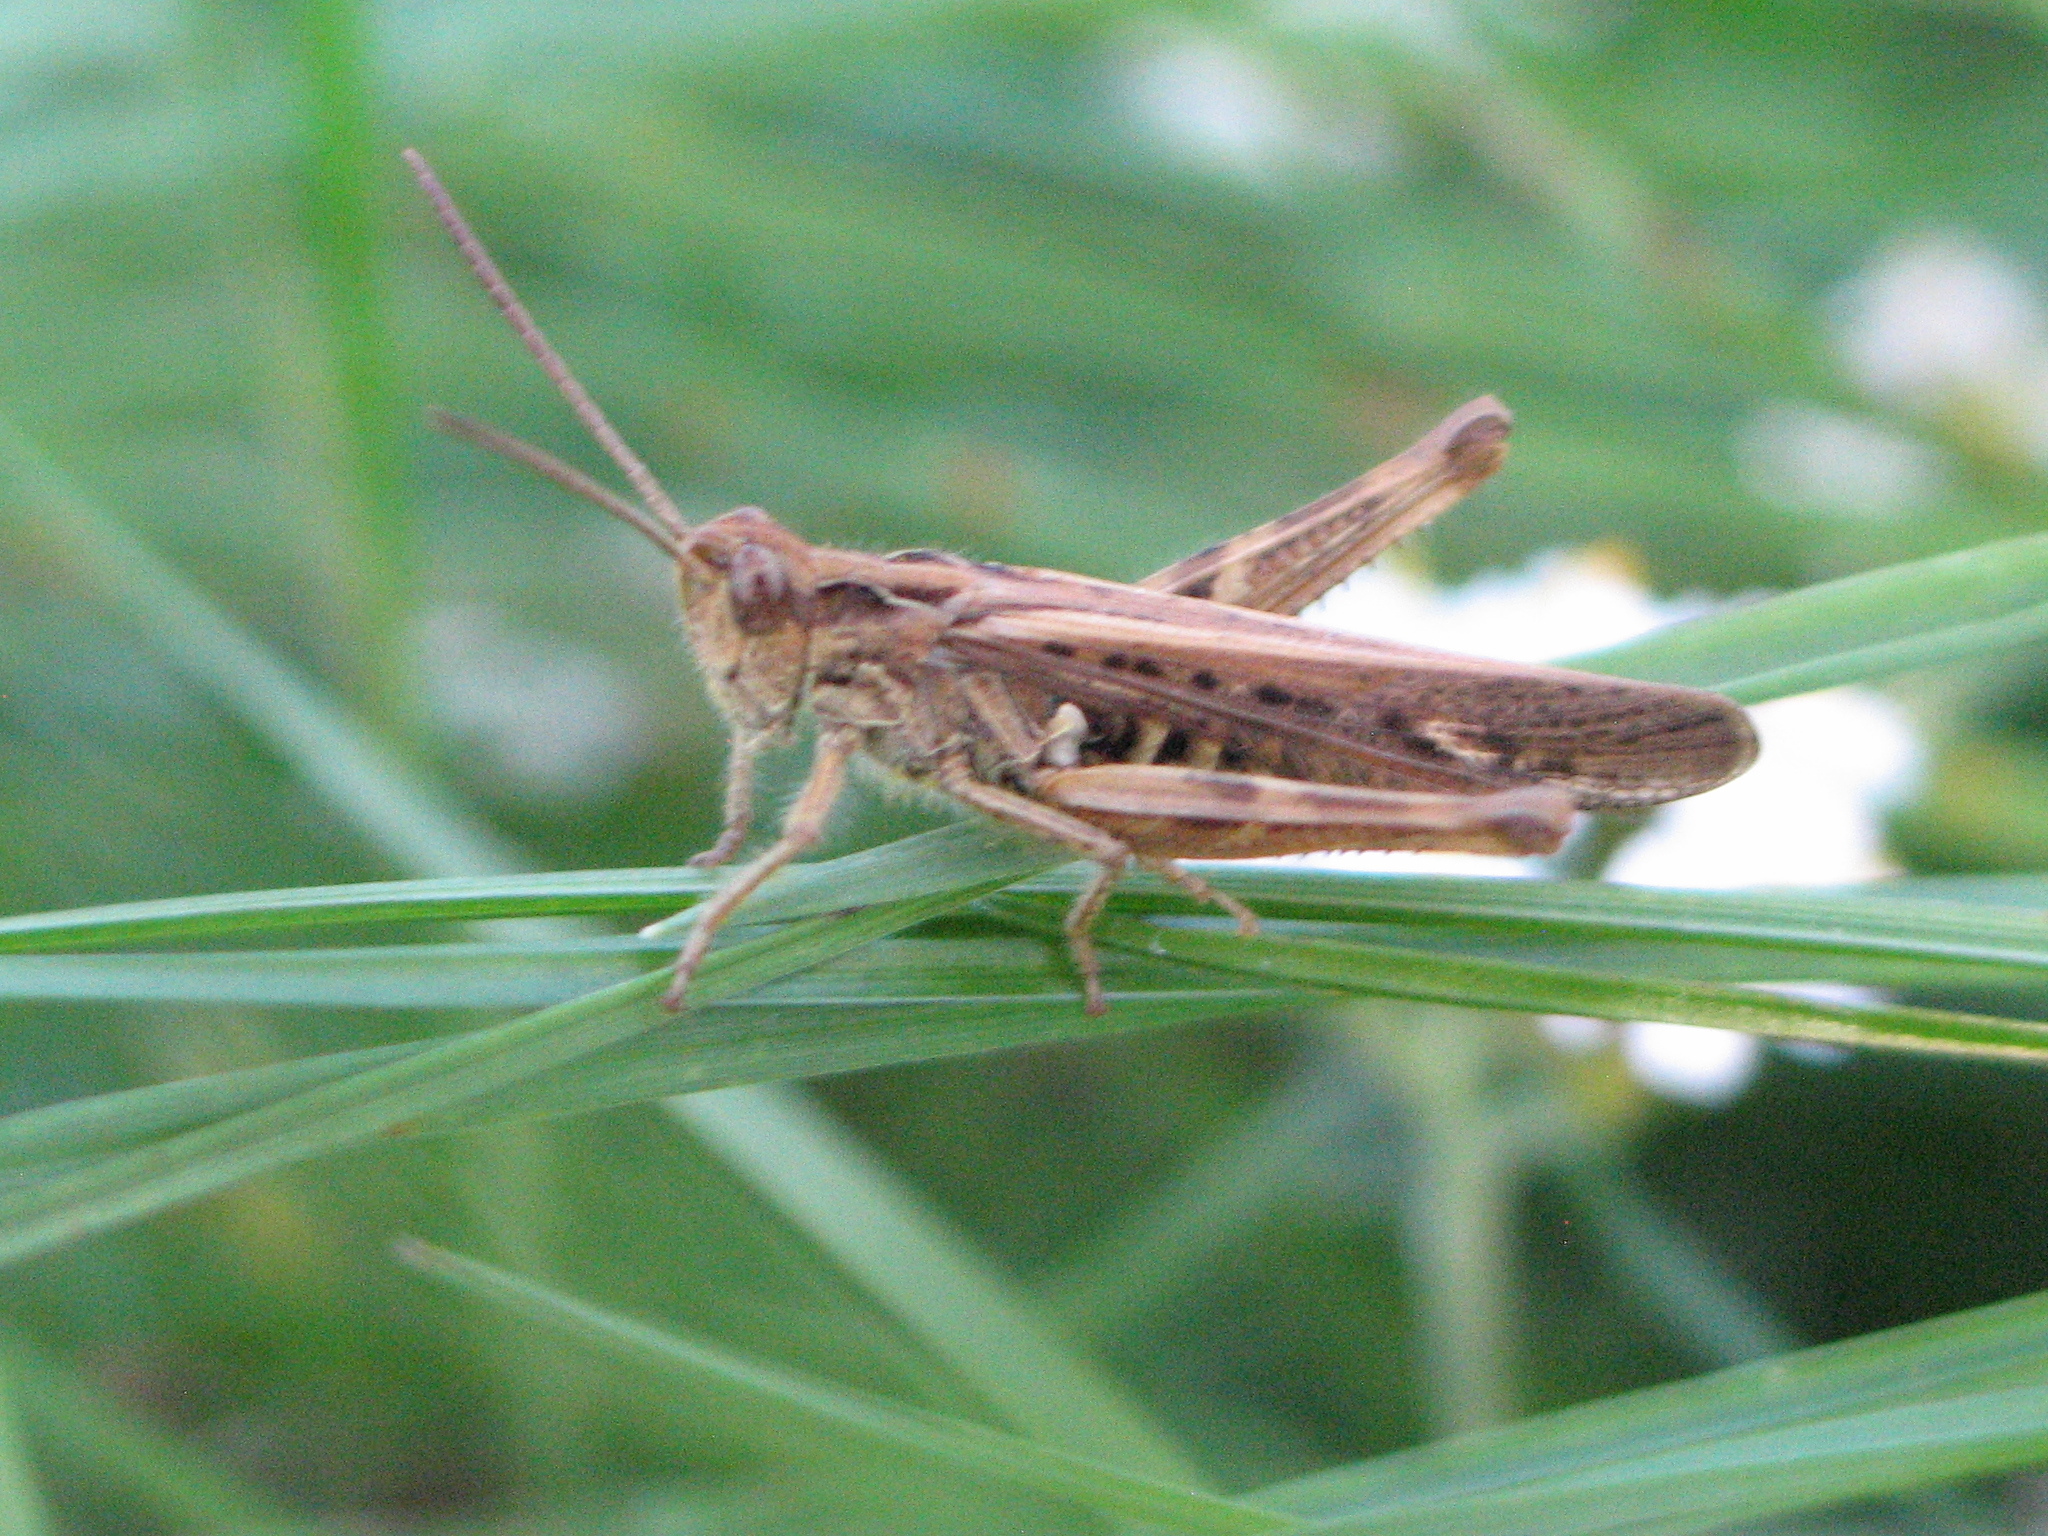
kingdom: Animalia
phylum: Arthropoda
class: Insecta
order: Orthoptera
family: Acrididae
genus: Chorthippus
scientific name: Chorthippus brunneus
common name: Field grasshopper
